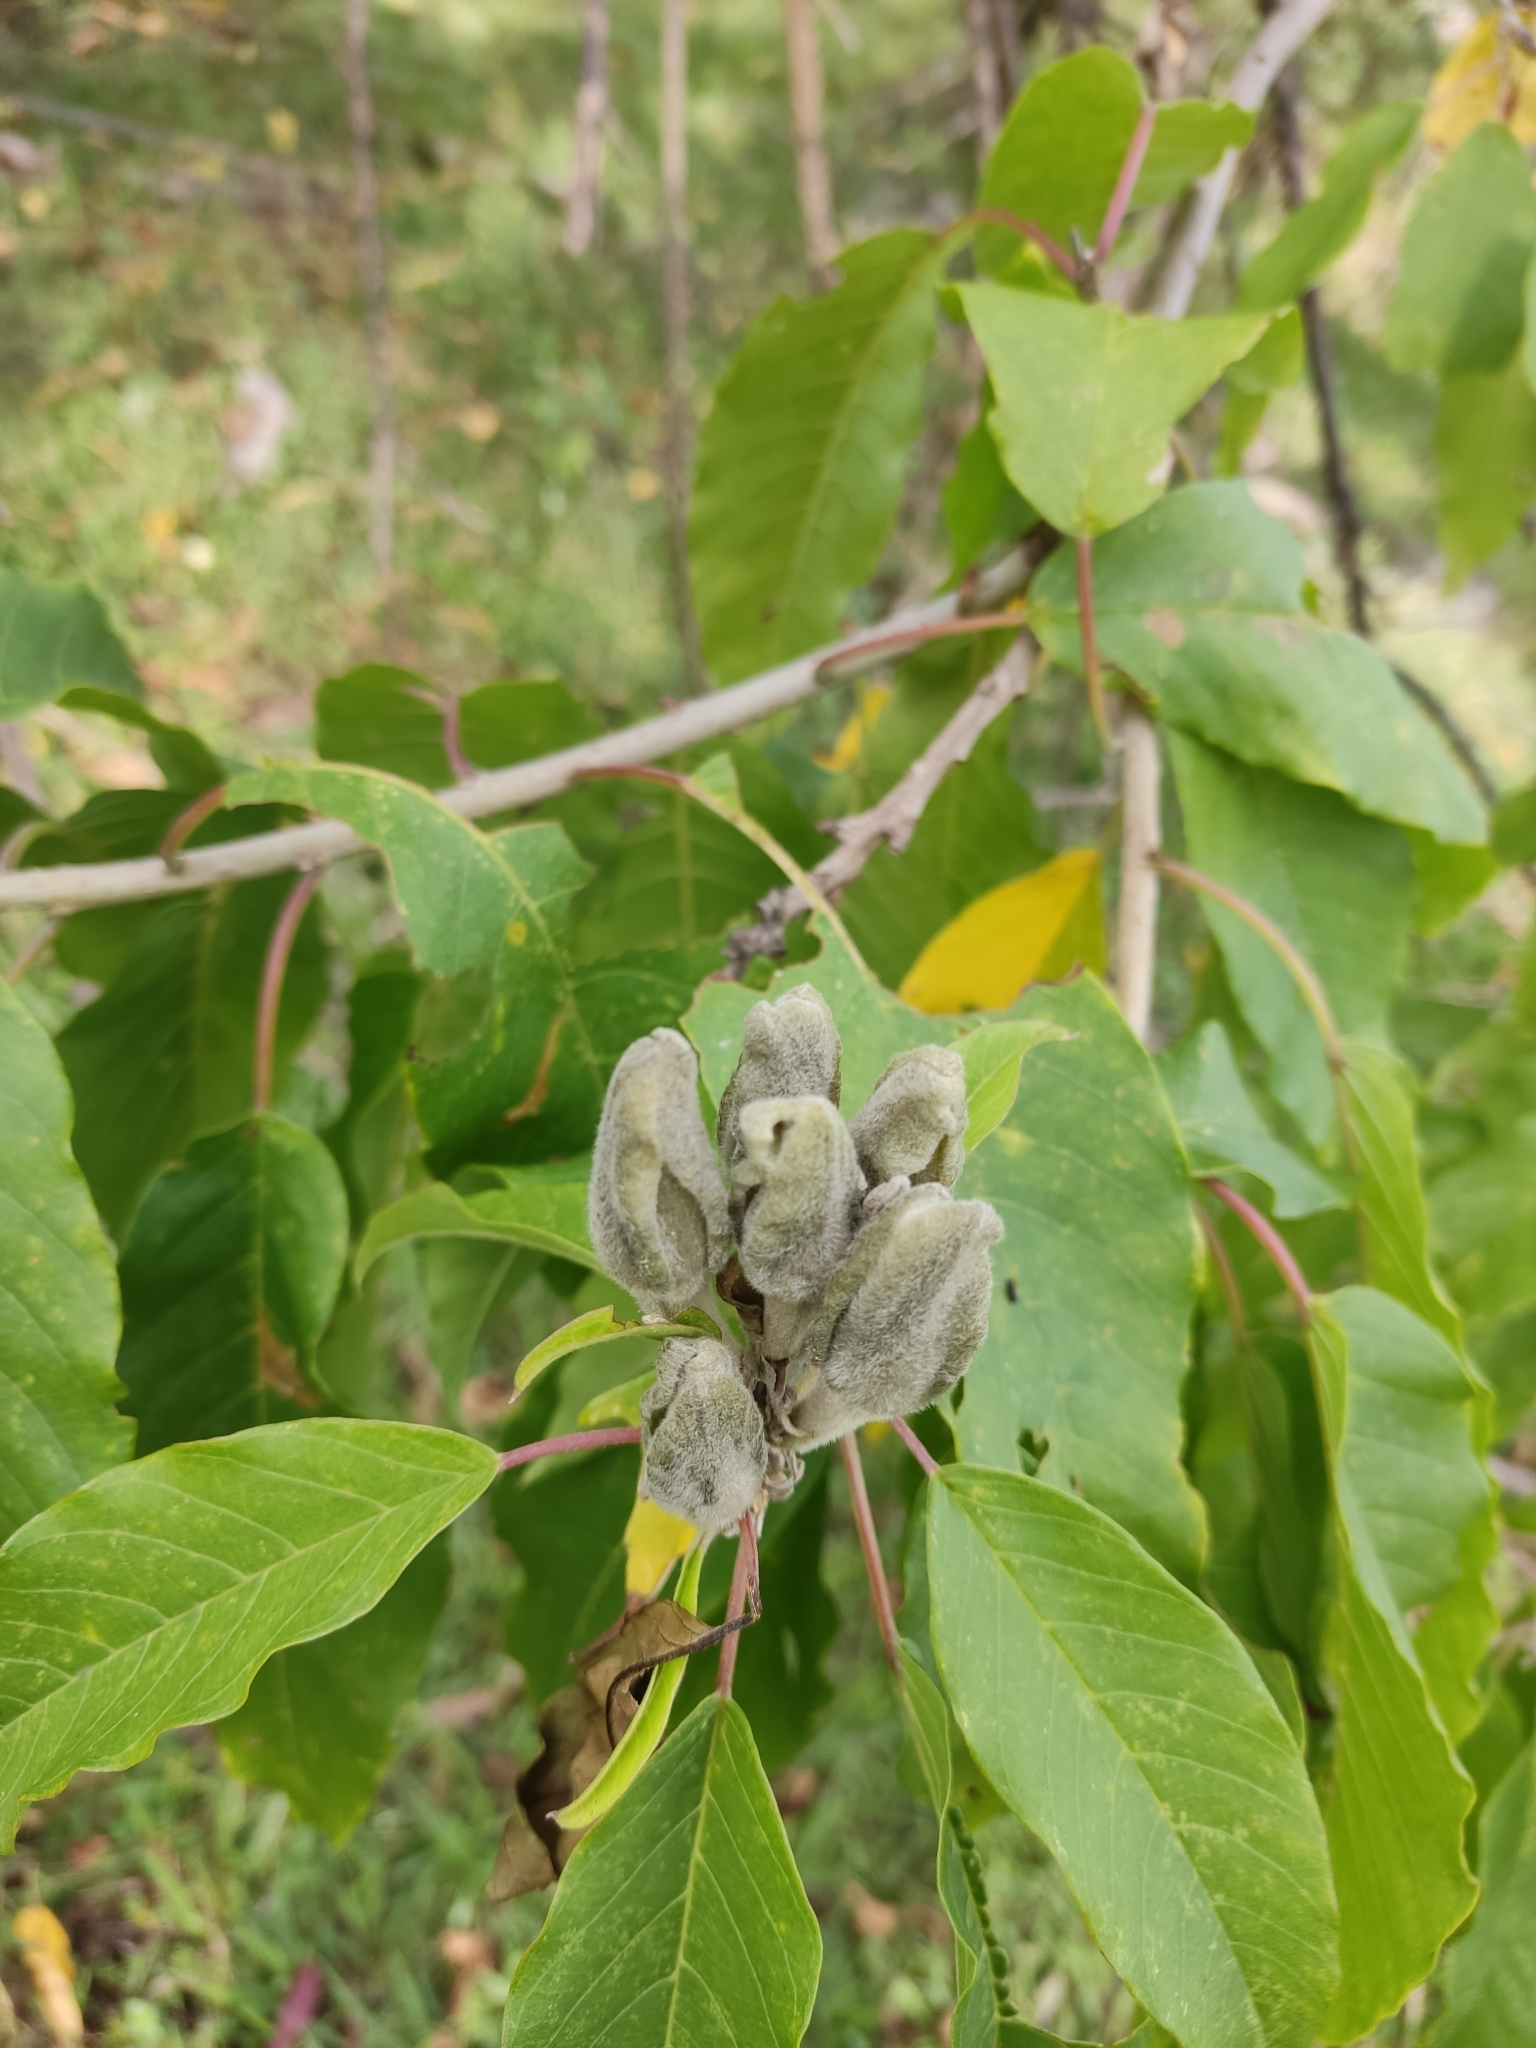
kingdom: Plantae
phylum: Tracheophyta
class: Magnoliopsida
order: Solanales
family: Convolvulaceae
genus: Ipomoea
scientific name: Ipomoea murucoides
